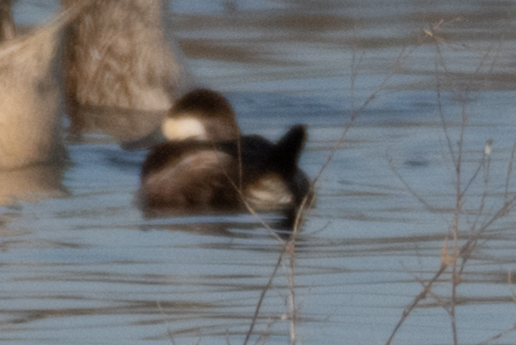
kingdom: Animalia
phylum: Chordata
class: Aves
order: Anseriformes
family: Anatidae
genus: Oxyura
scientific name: Oxyura jamaicensis
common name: Ruddy duck
